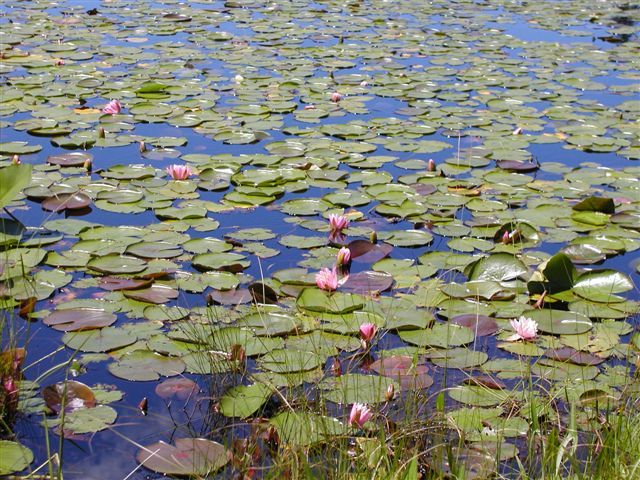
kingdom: Plantae
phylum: Tracheophyta
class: Magnoliopsida
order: Nymphaeales
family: Nymphaeaceae
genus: Nymphaea
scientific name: Nymphaea odorata
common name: Fragrant water-lily
